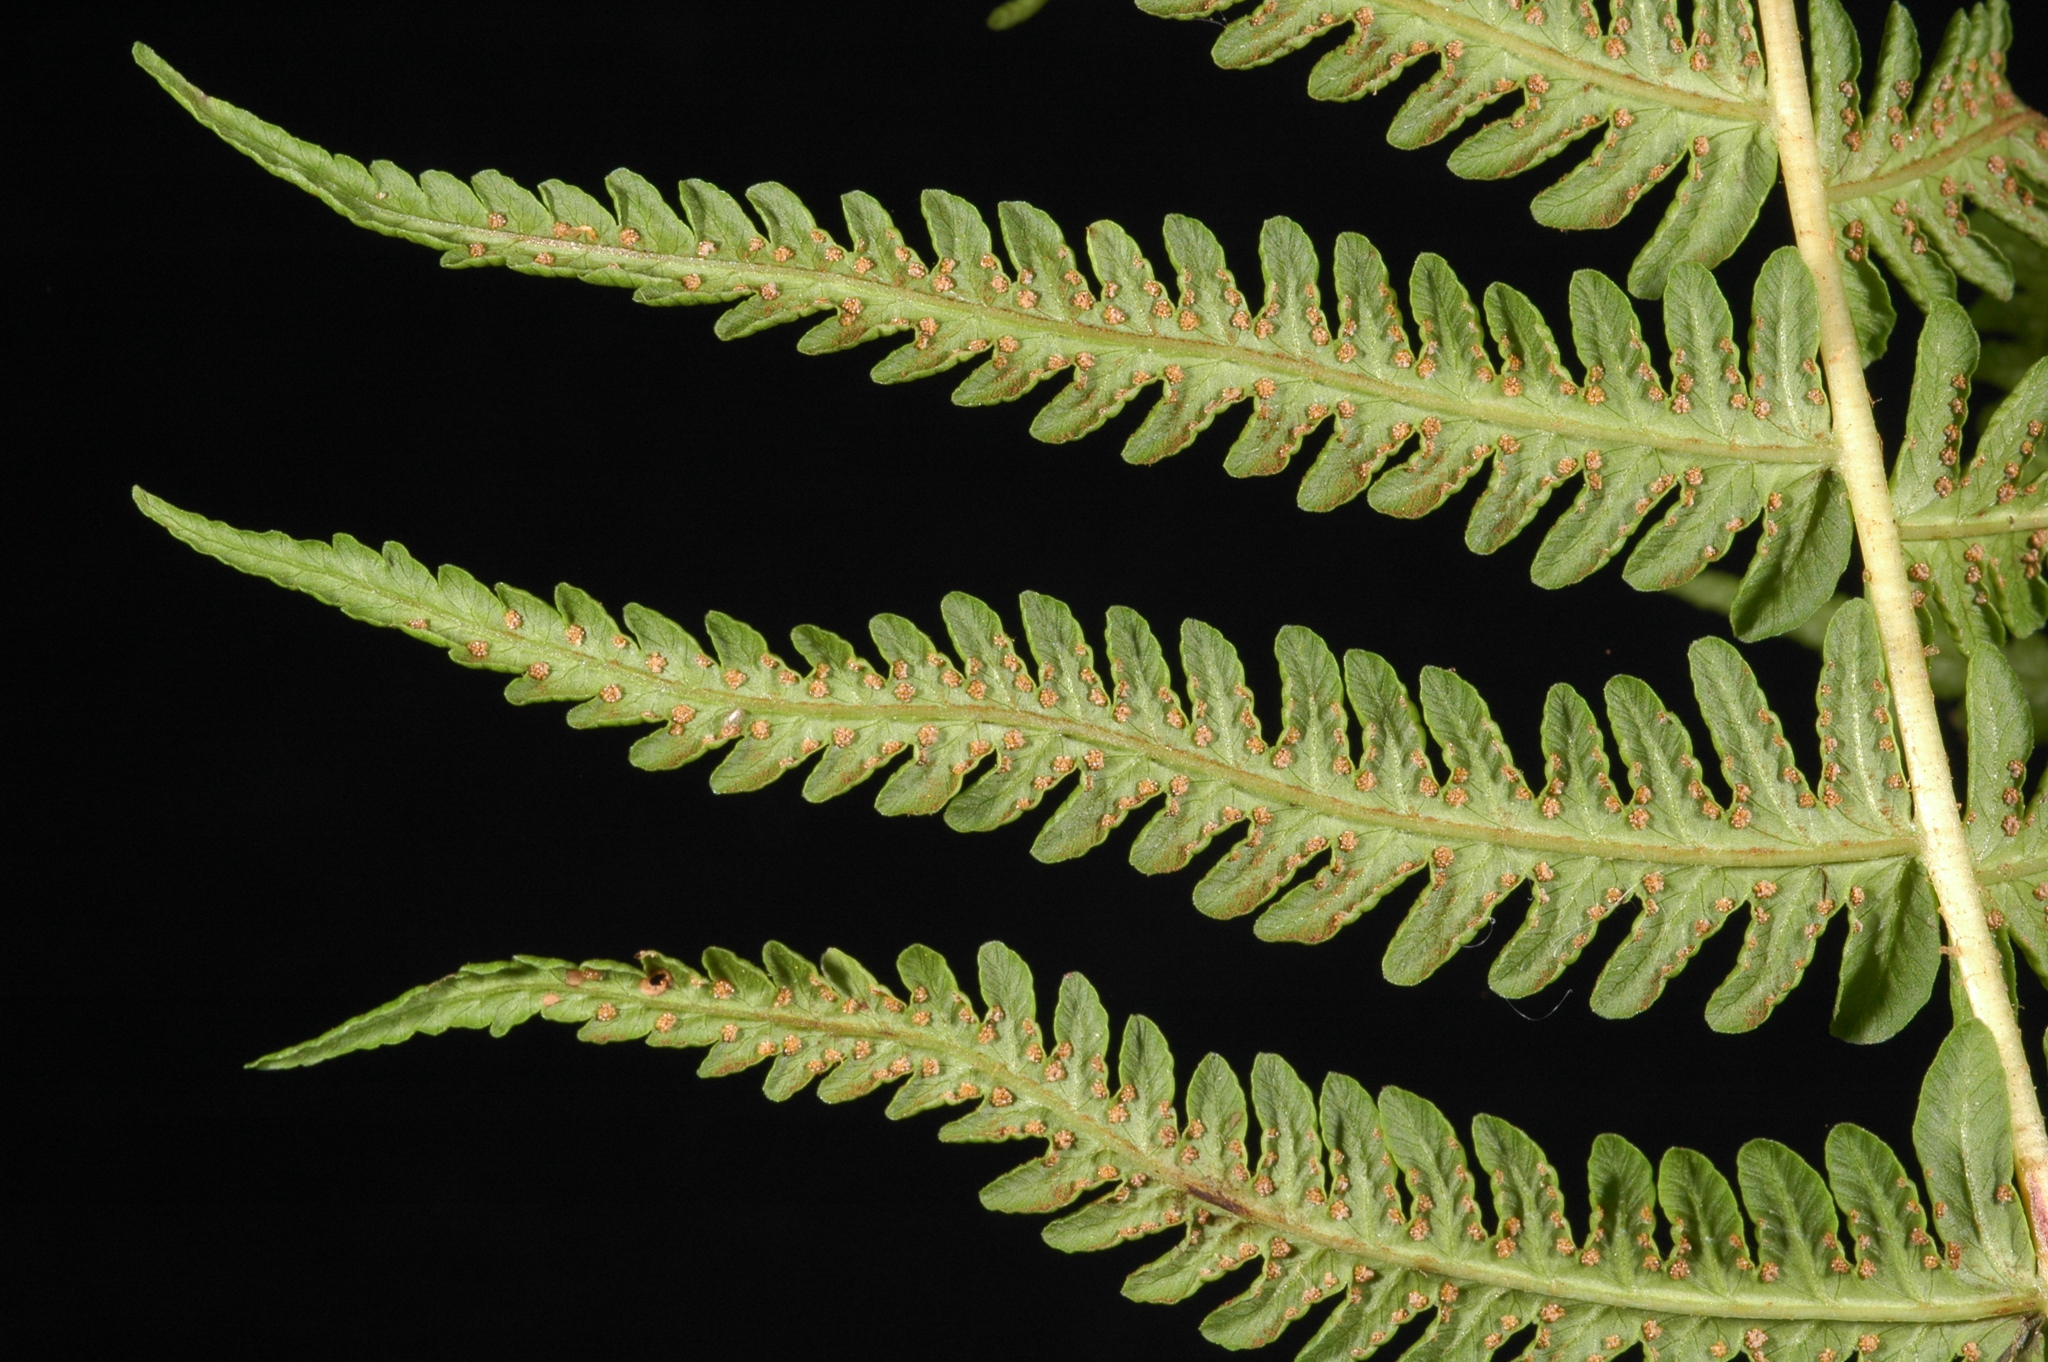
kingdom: Plantae
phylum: Tracheophyta
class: Polypodiopsida
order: Polypodiales
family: Thelypteridaceae
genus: Oreopteris
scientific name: Oreopteris quelpartensis
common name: Mountain fern
